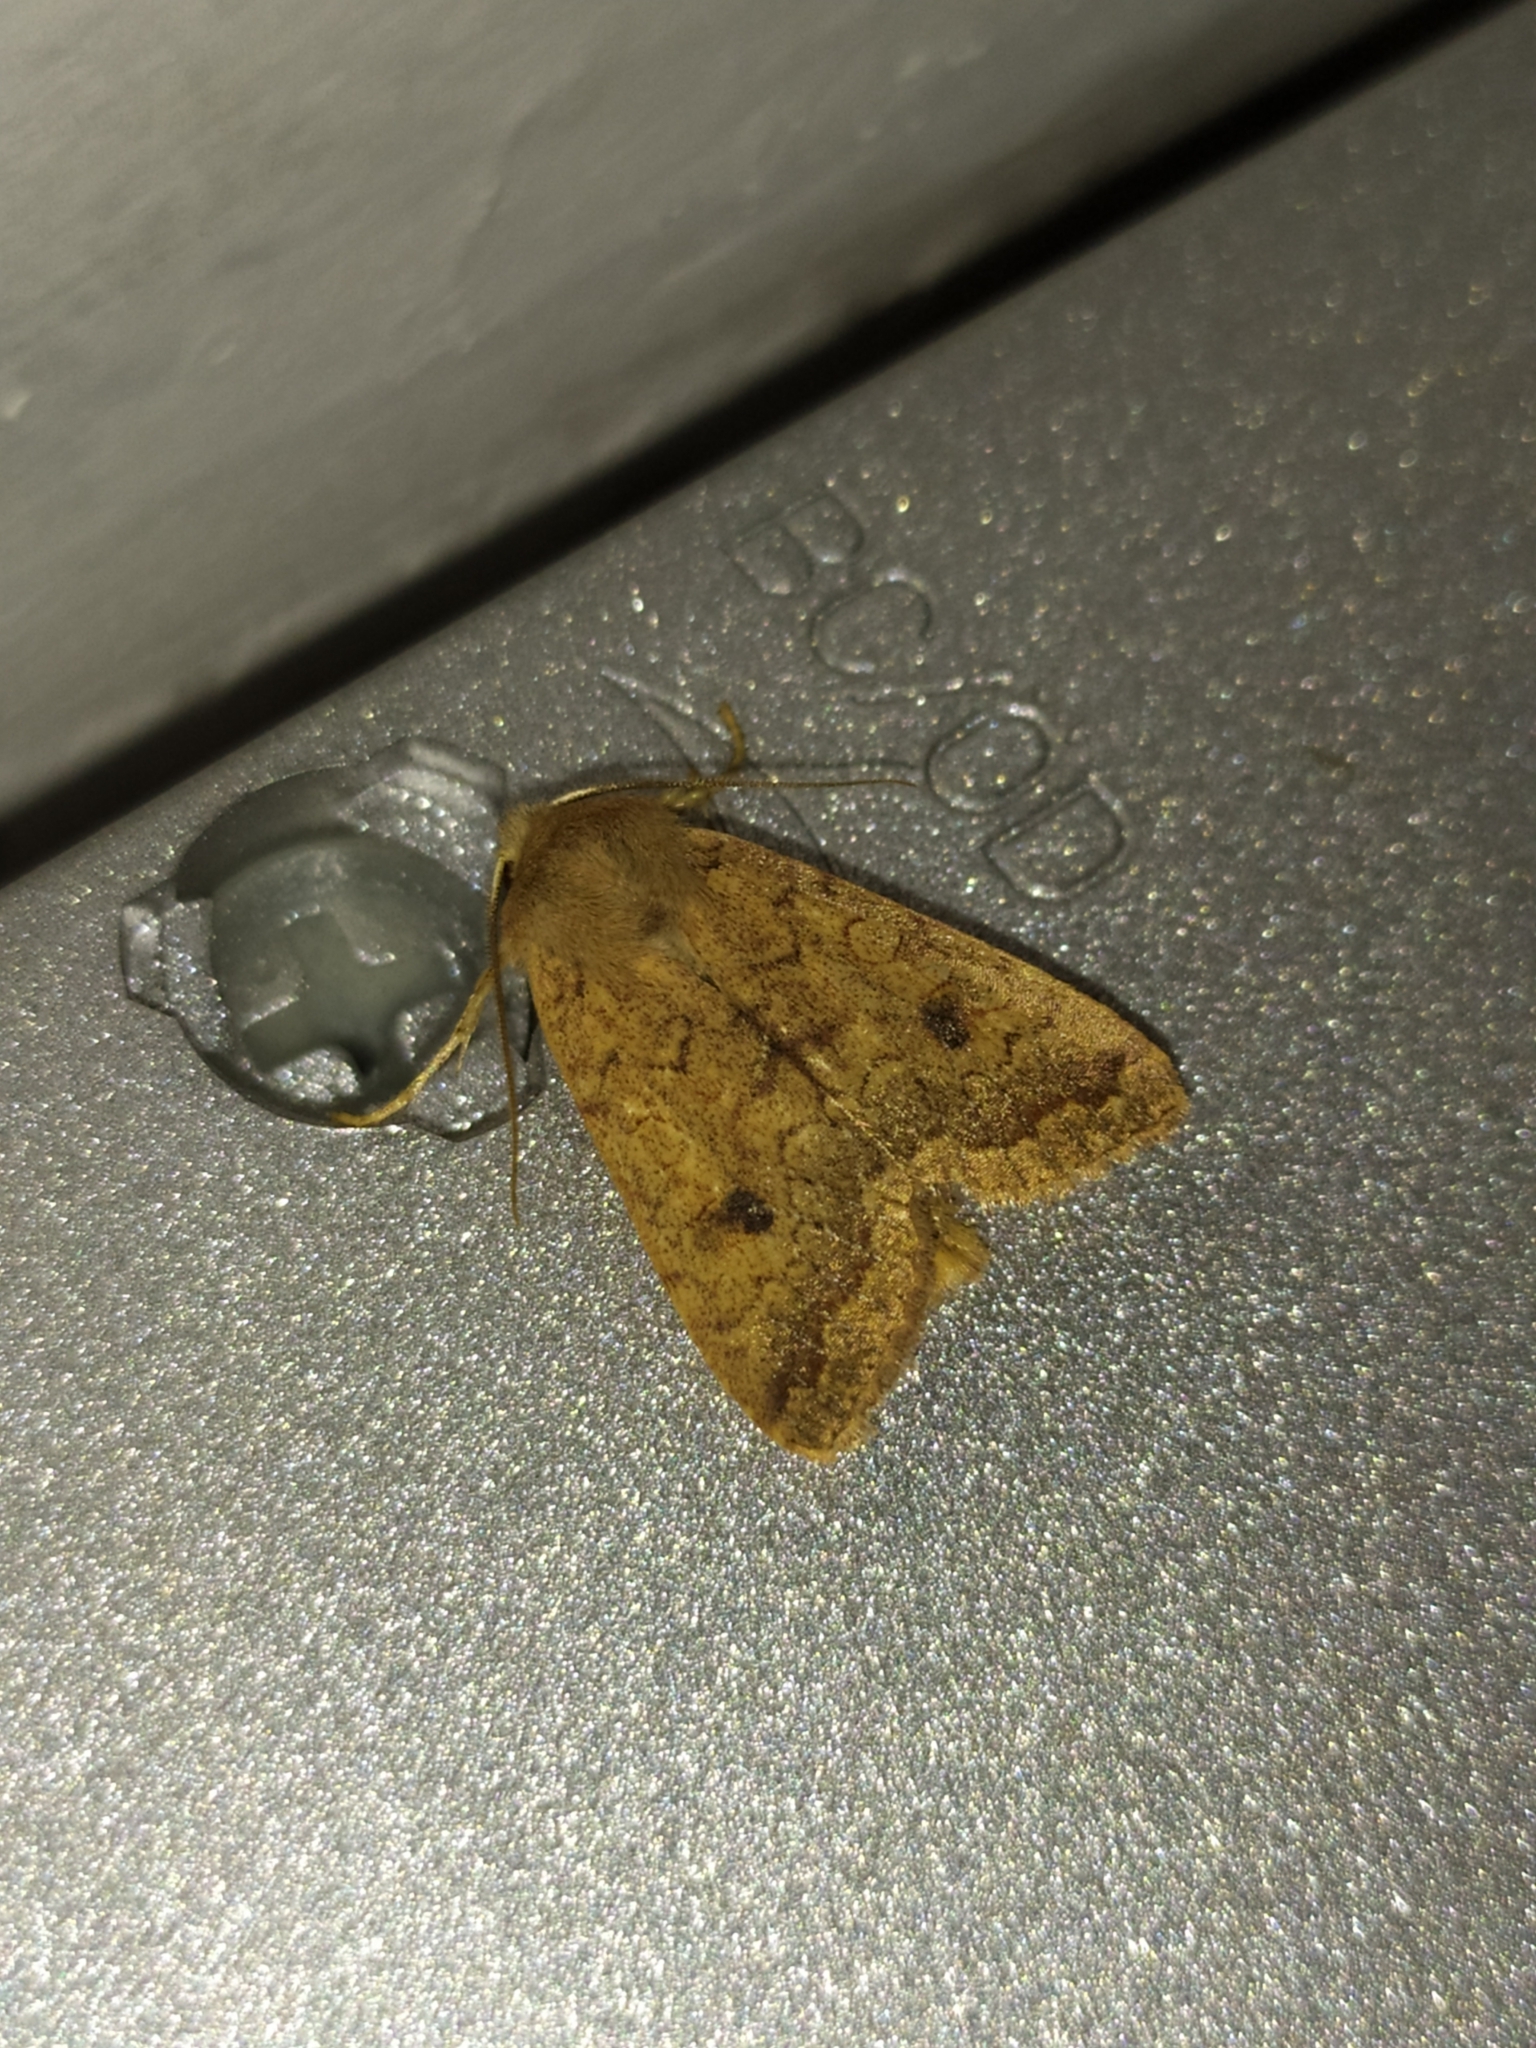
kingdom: Animalia
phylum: Arthropoda
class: Insecta
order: Lepidoptera
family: Noctuidae
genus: Sunira
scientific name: Sunira circellaris
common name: Brick
